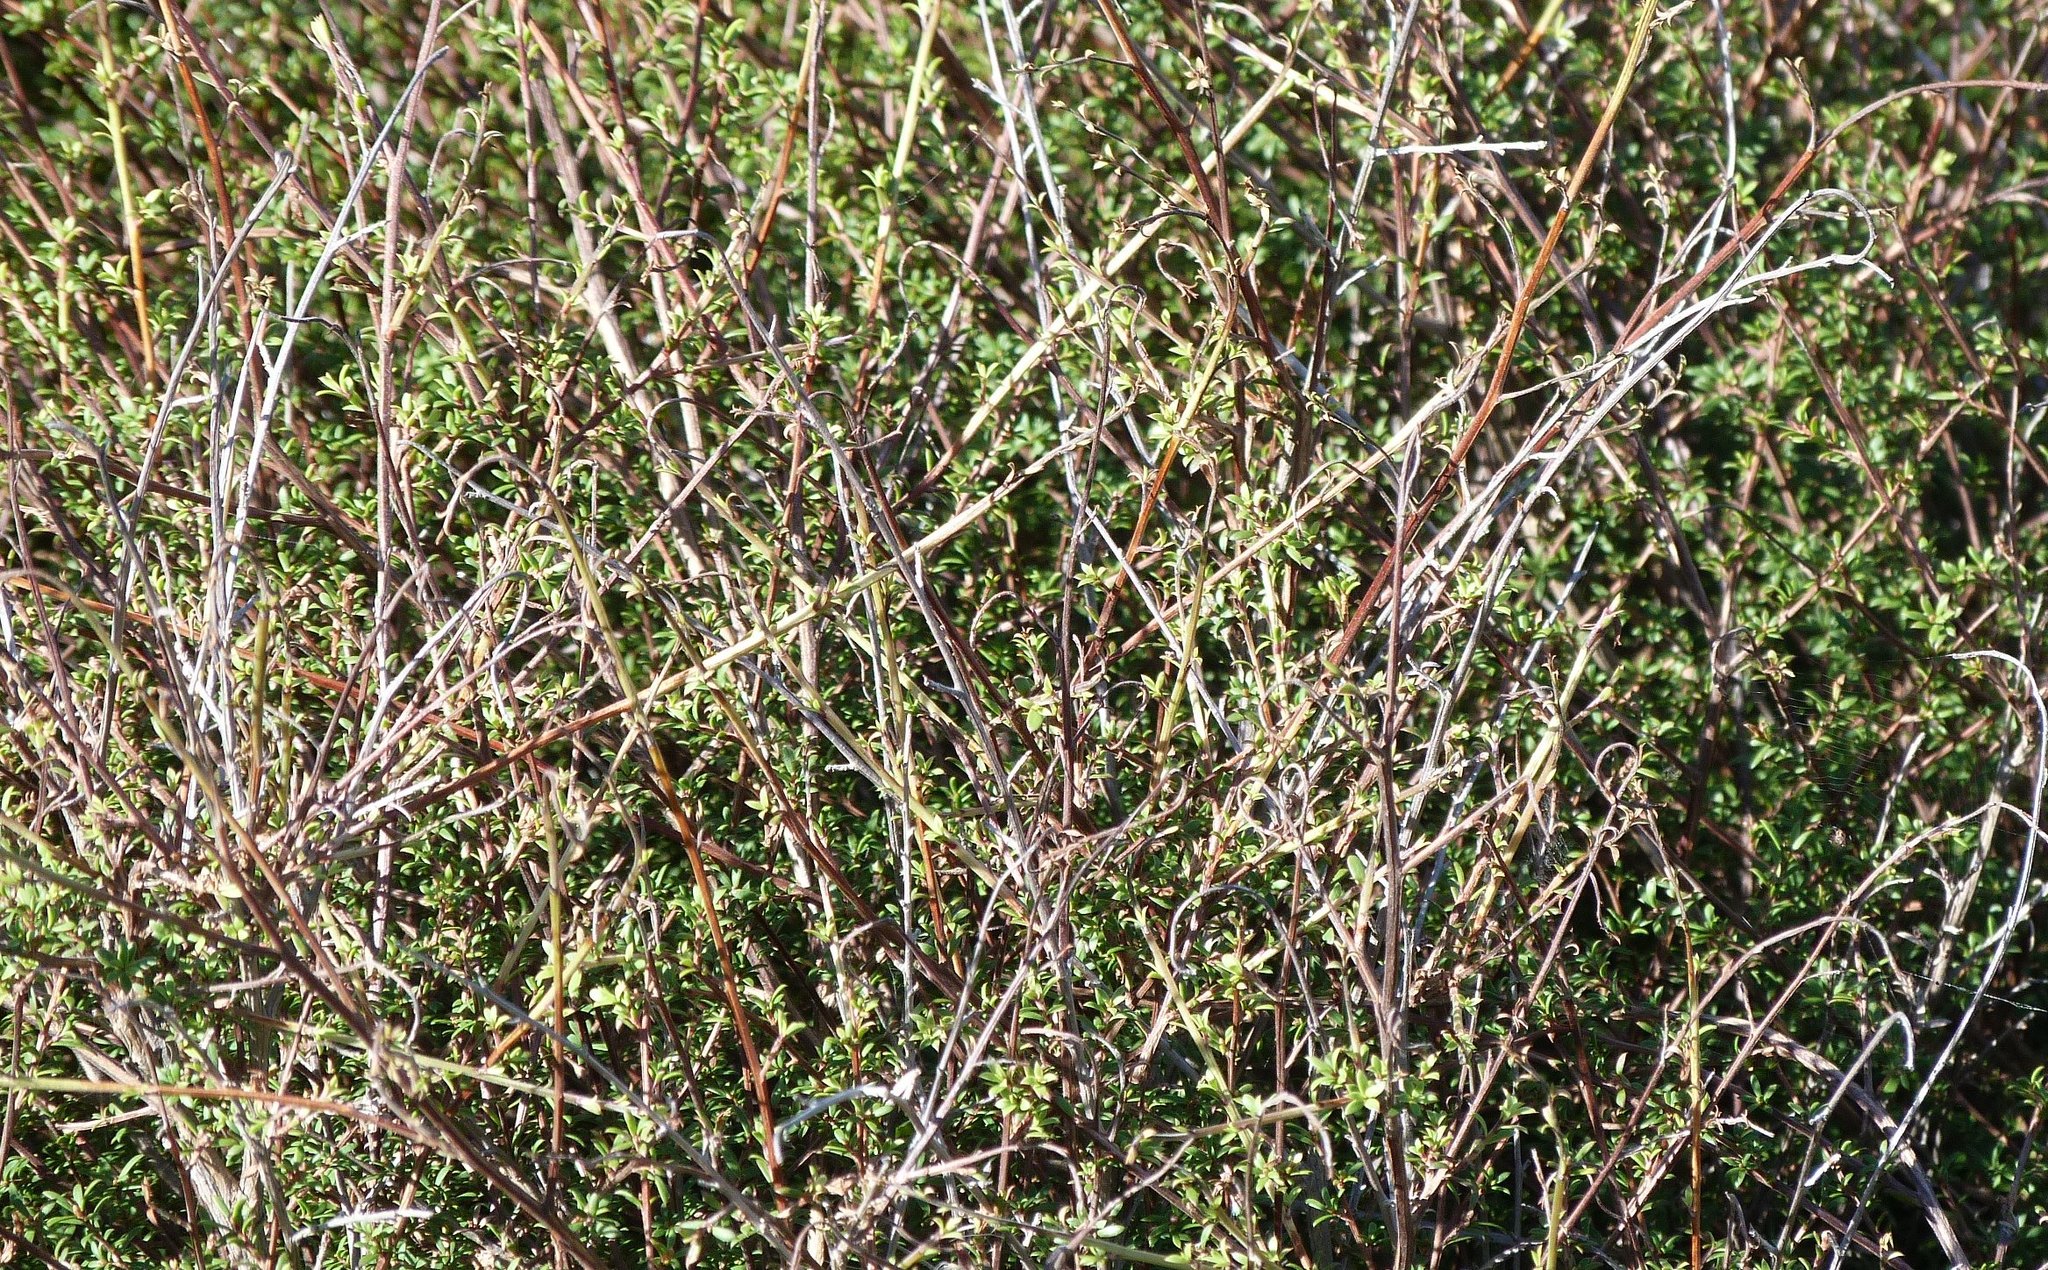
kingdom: Plantae
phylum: Tracheophyta
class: Magnoliopsida
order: Myrtales
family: Myrtaceae
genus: Kunzea
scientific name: Kunzea robusta
